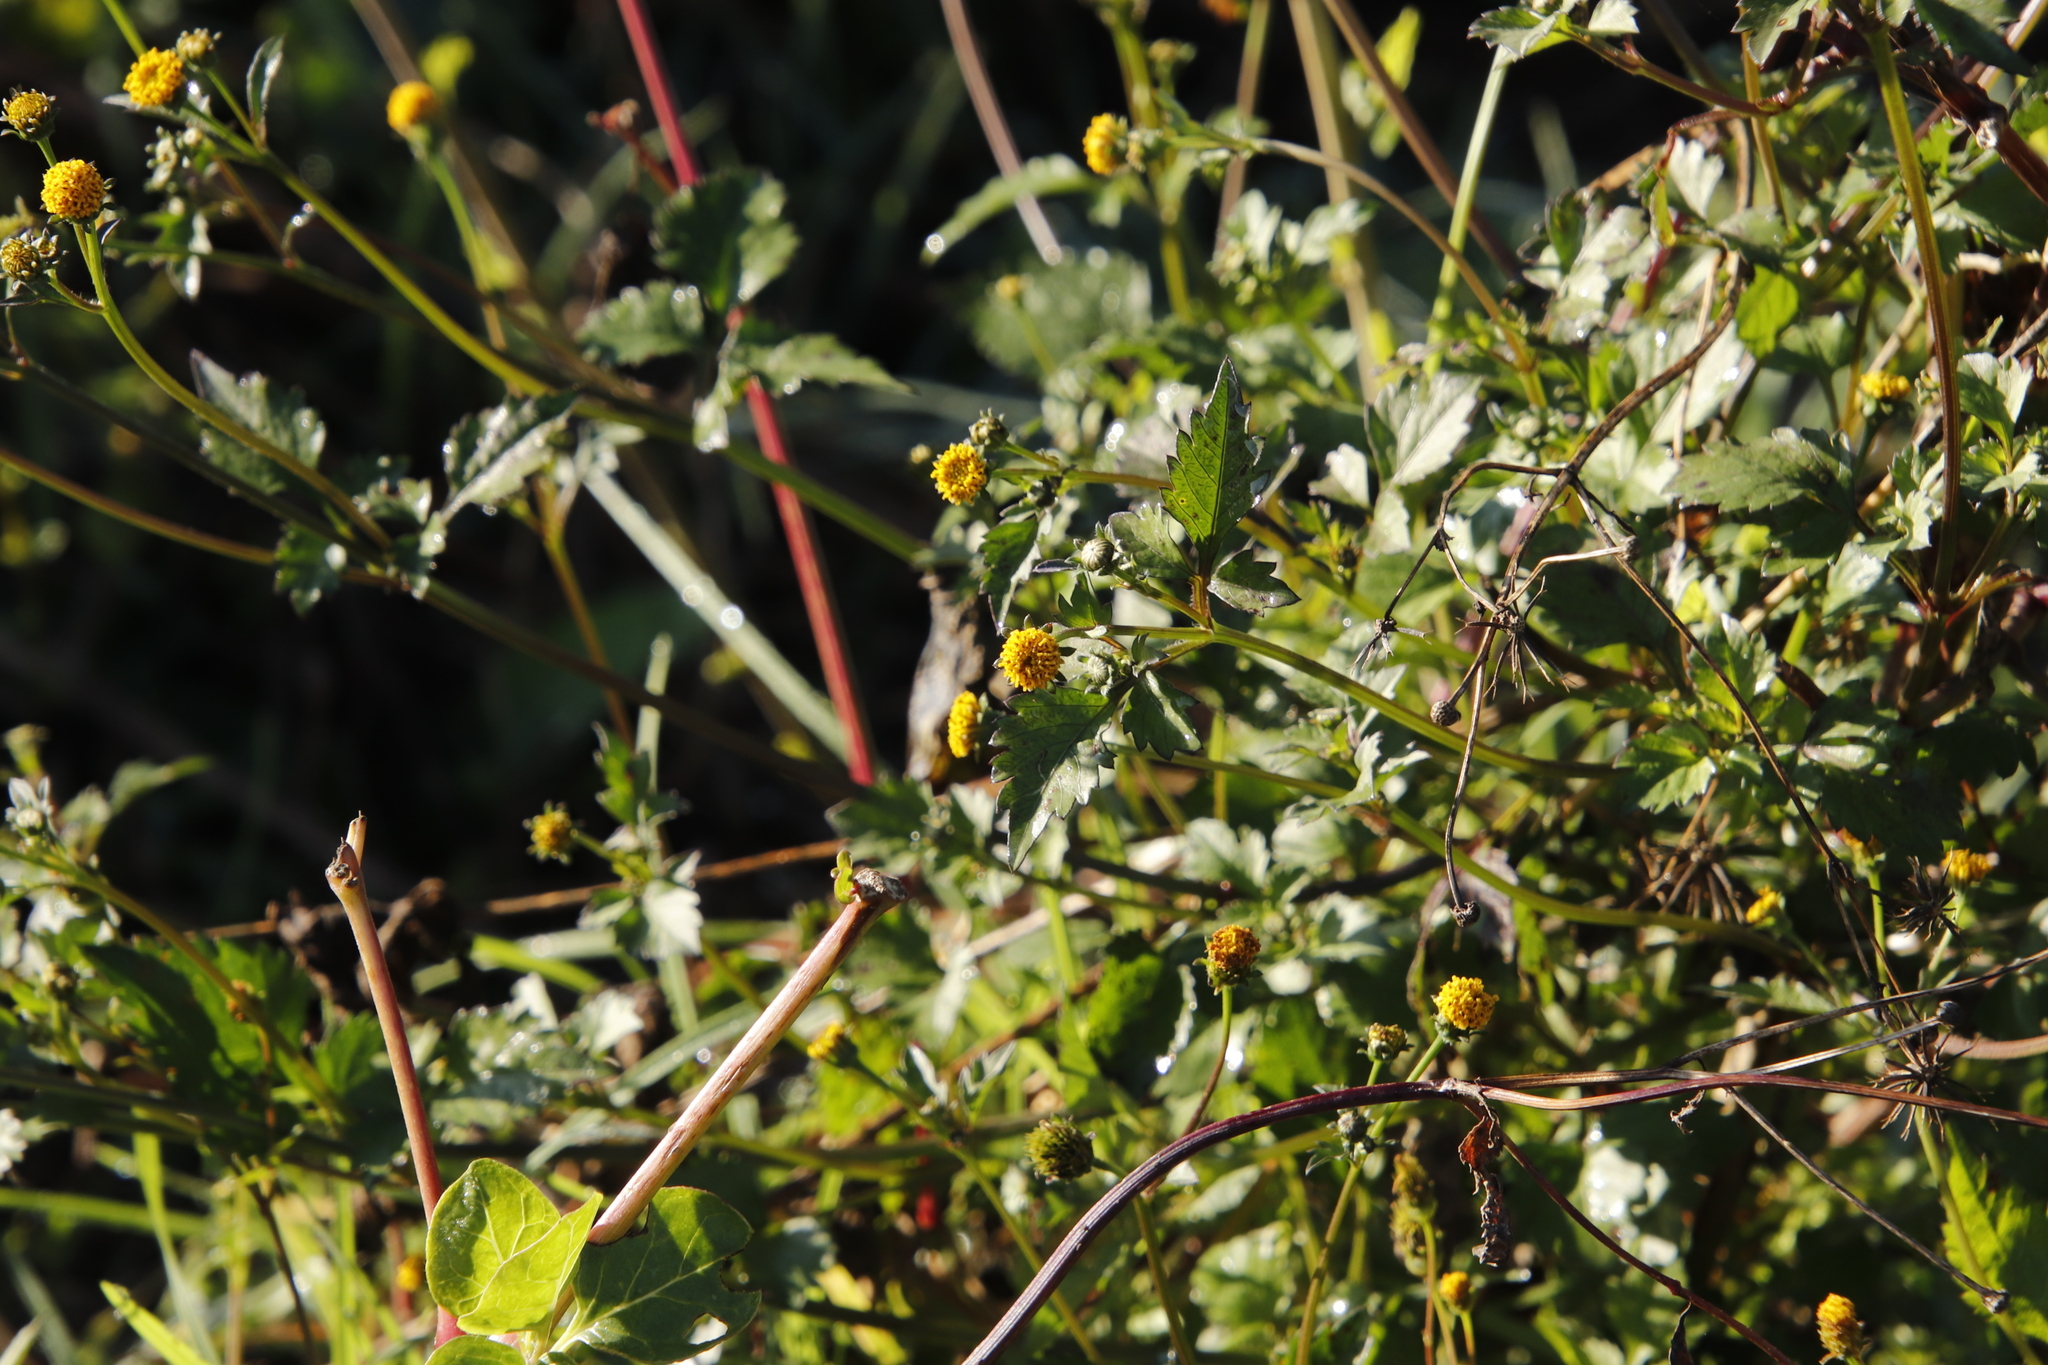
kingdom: Plantae
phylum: Tracheophyta
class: Magnoliopsida
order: Asterales
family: Asteraceae
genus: Bidens
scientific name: Bidens pilosa
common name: Black-jack
